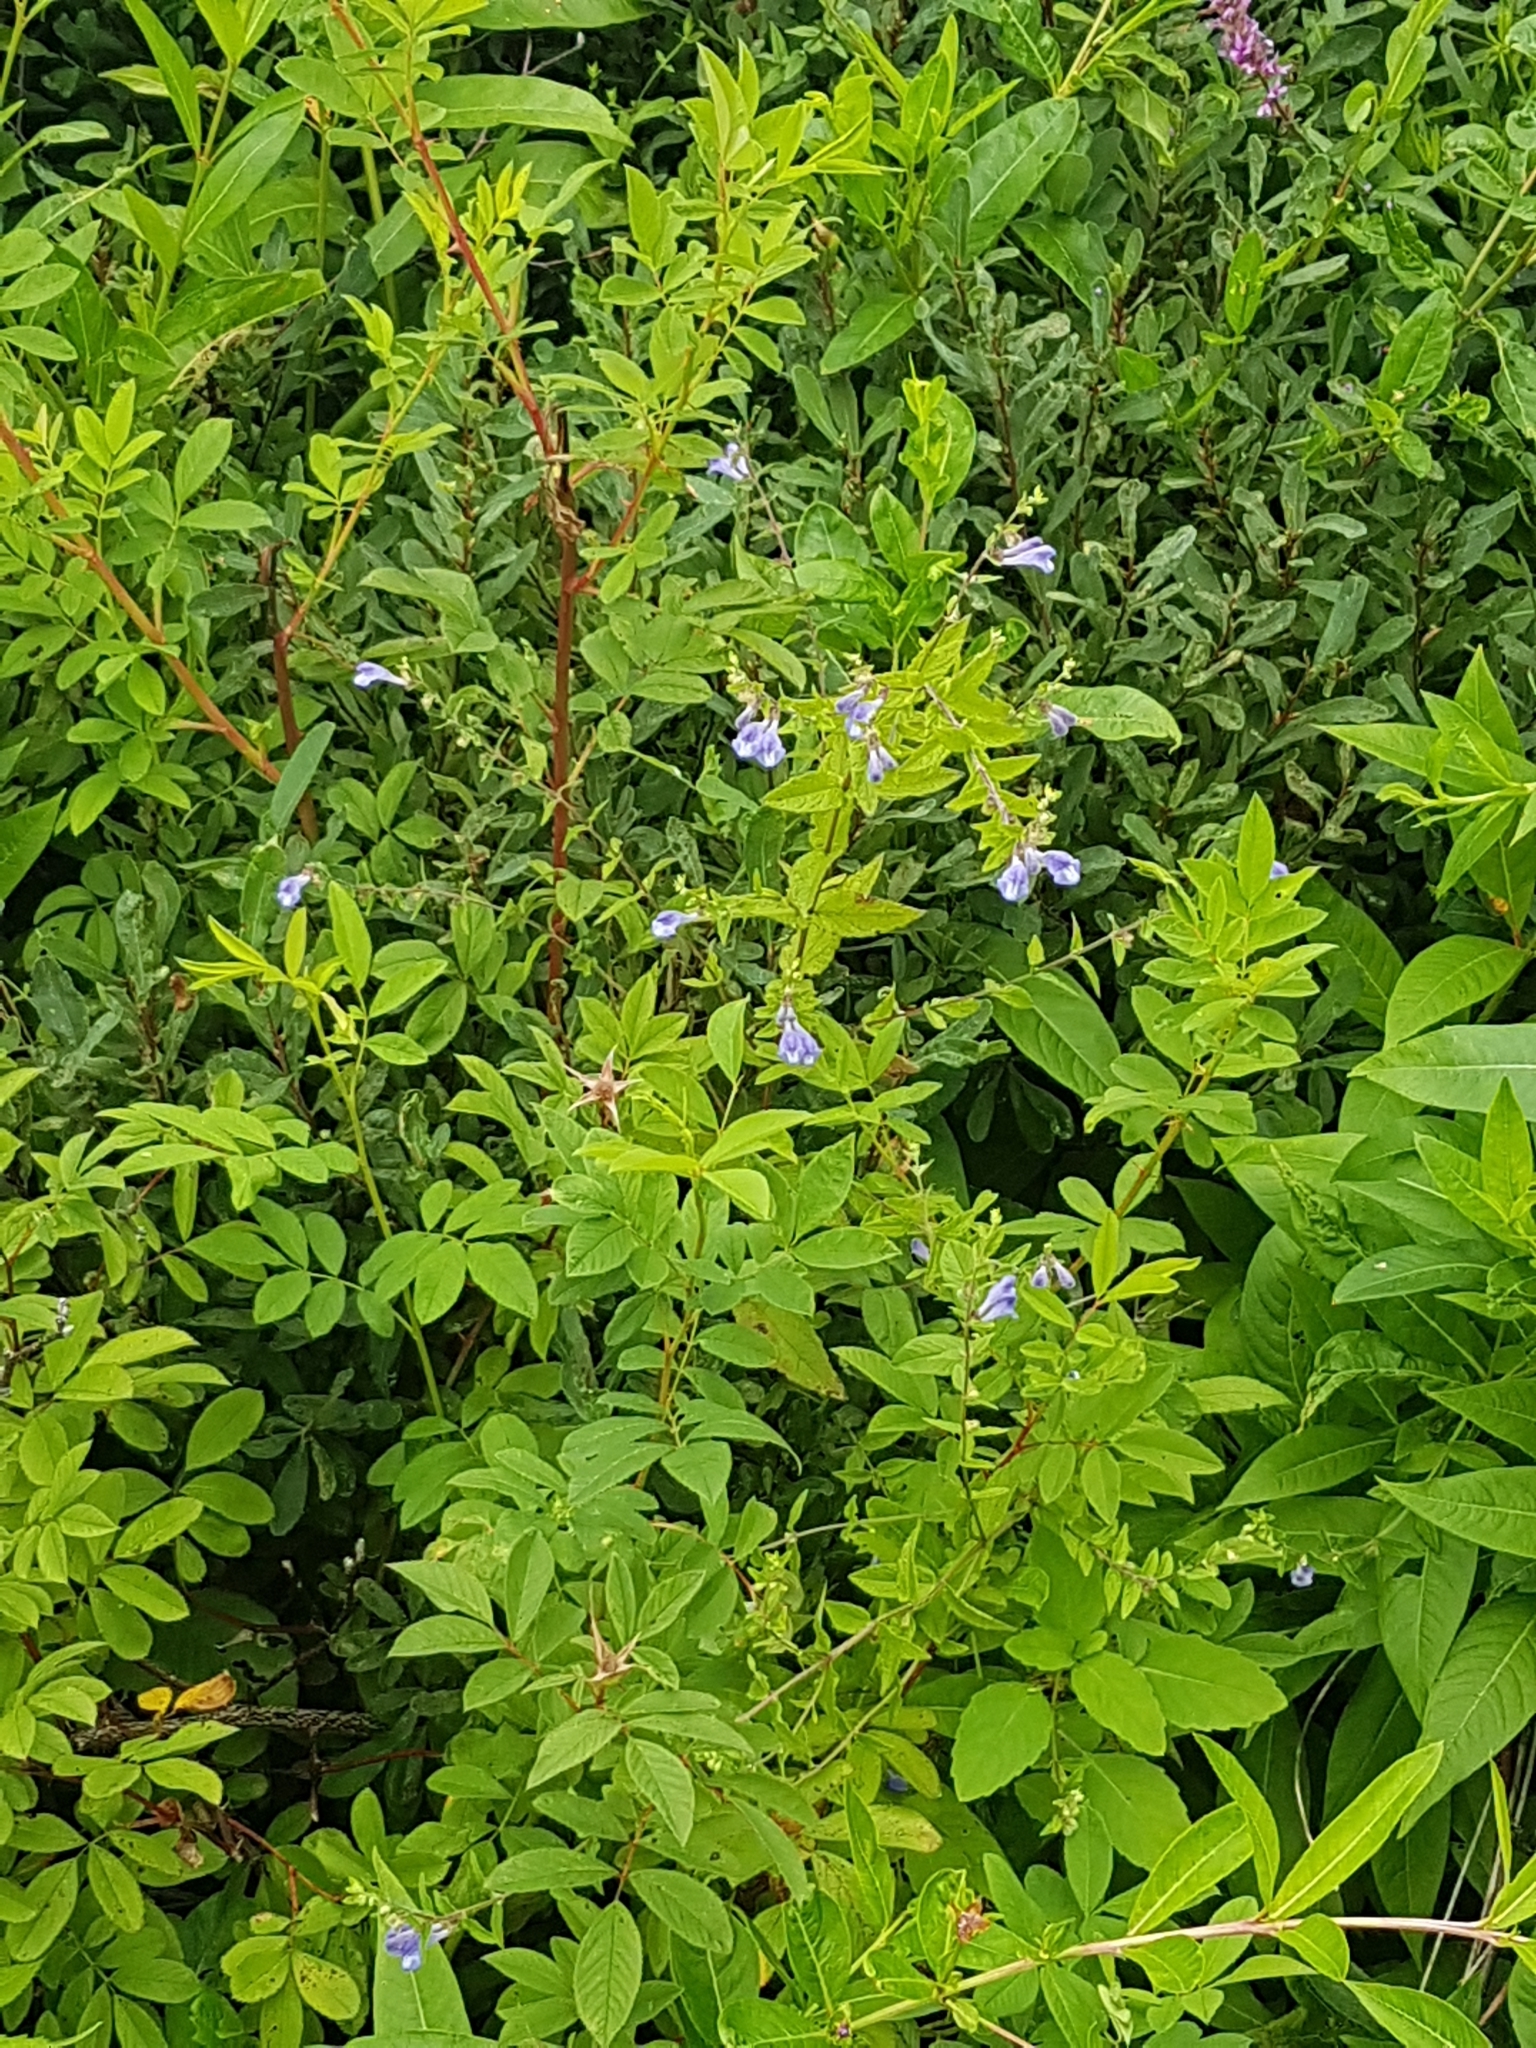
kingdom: Plantae
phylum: Tracheophyta
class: Magnoliopsida
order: Lamiales
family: Lamiaceae
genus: Scutellaria
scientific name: Scutellaria galericulata
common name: Skullcap
